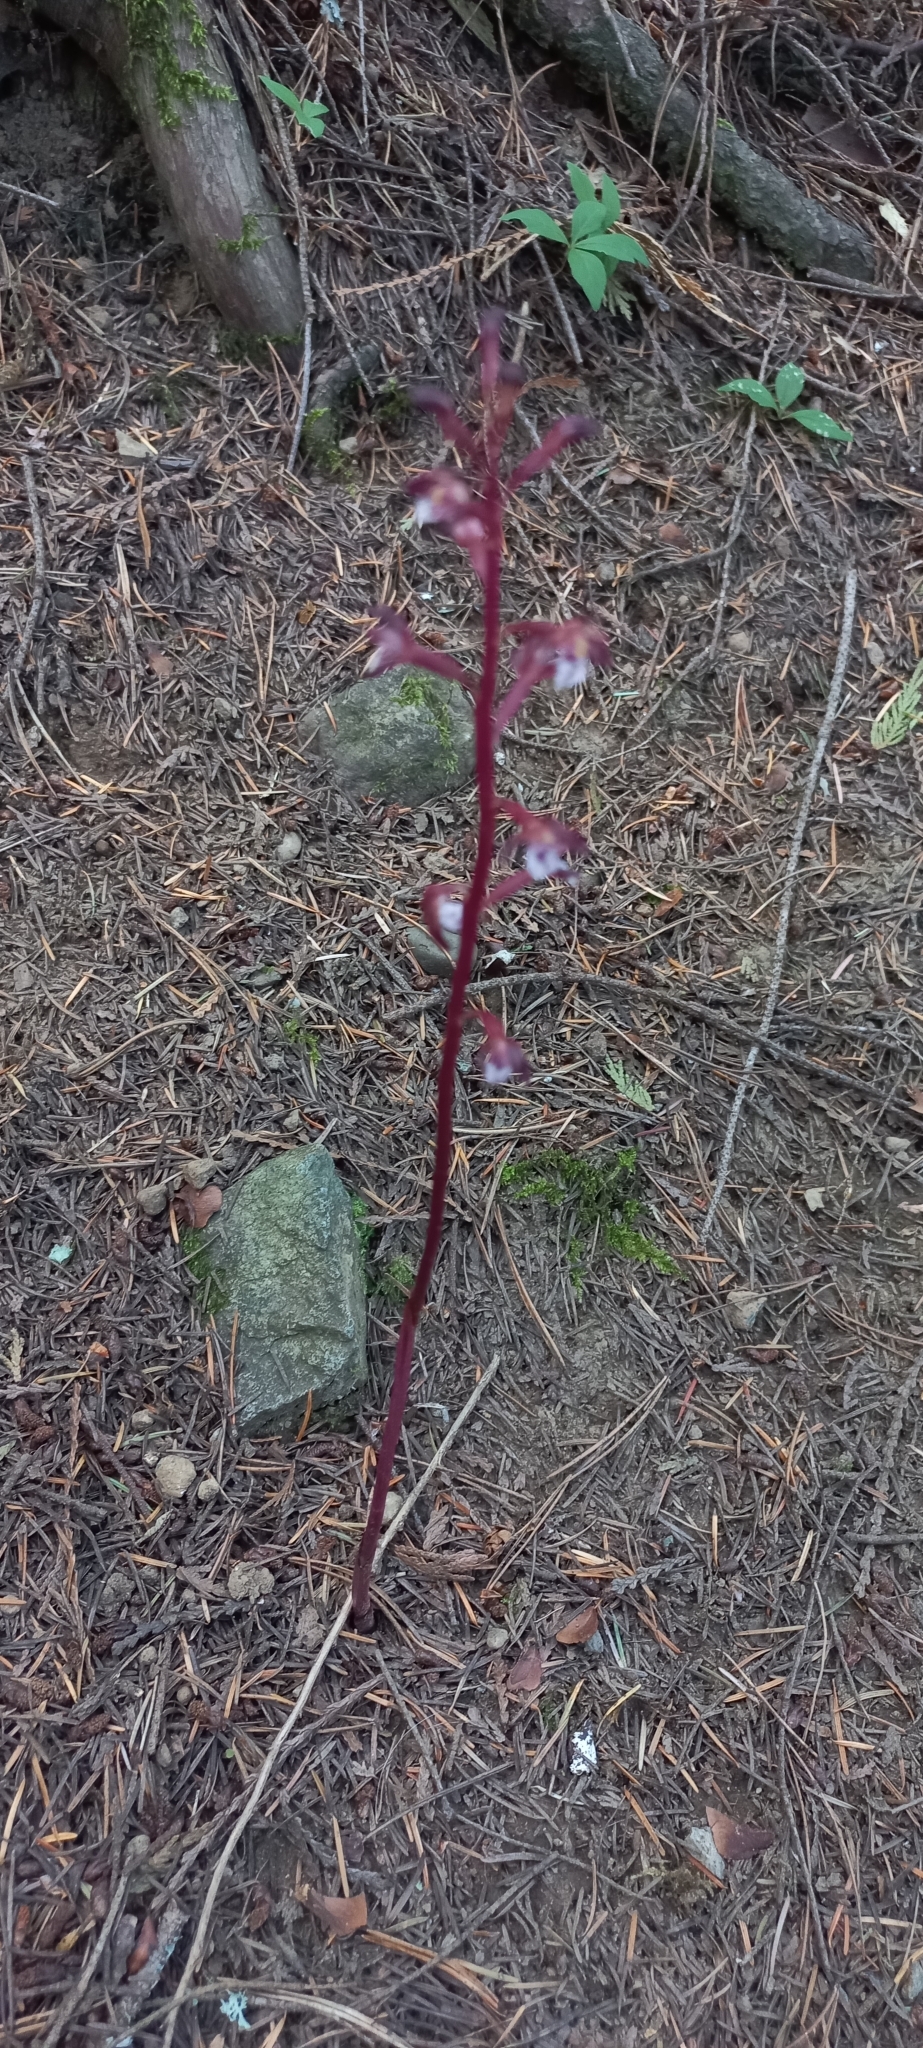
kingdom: Plantae
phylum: Tracheophyta
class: Liliopsida
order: Asparagales
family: Orchidaceae
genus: Corallorhiza
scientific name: Corallorhiza maculata
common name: Spotted coralroot
